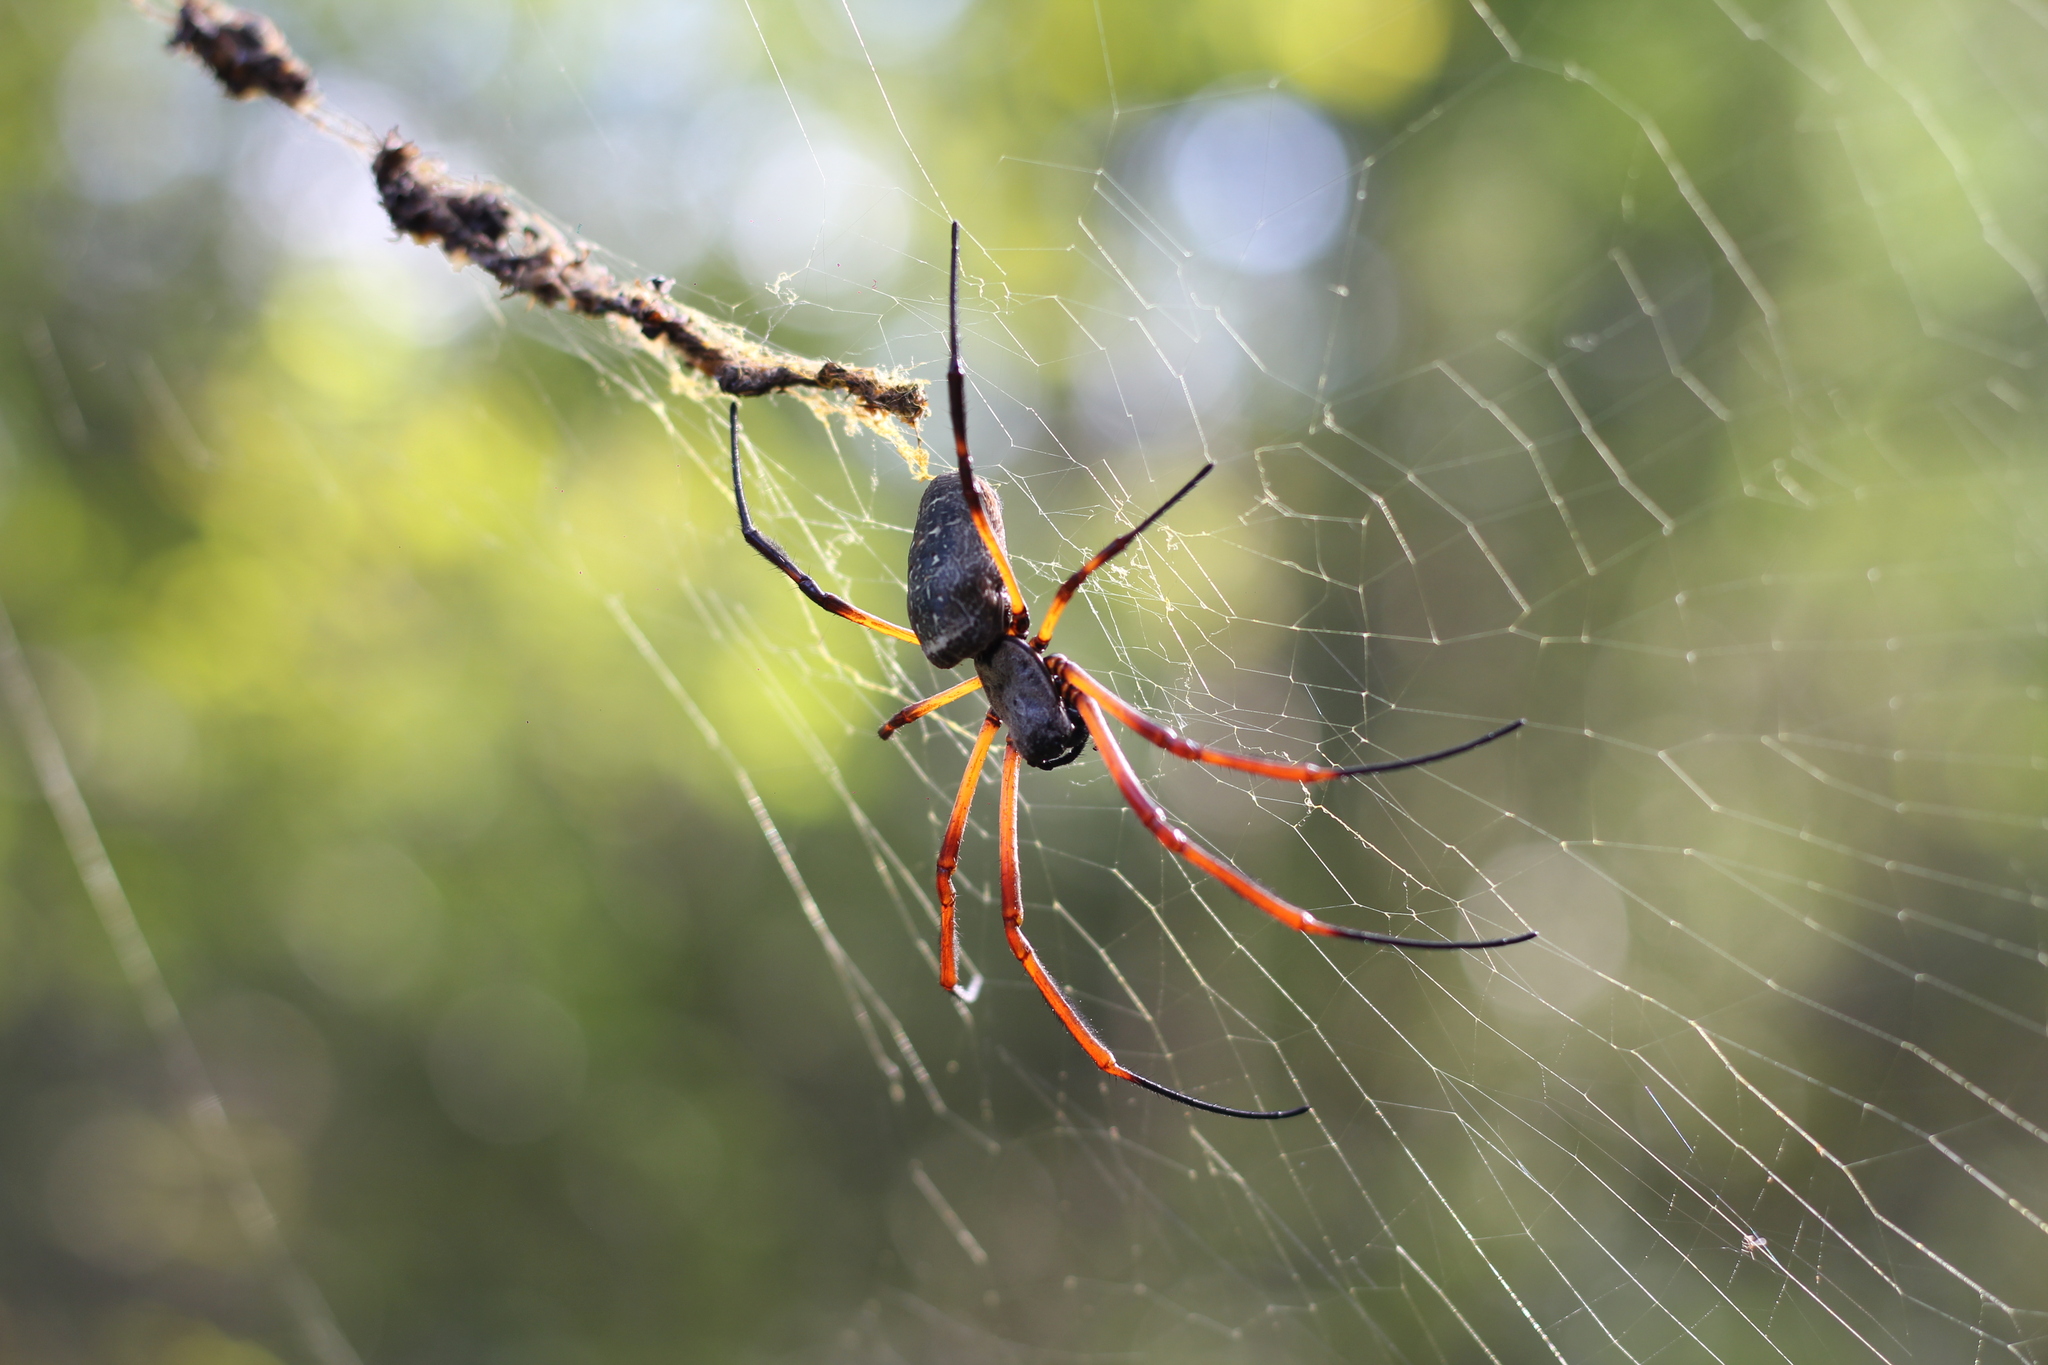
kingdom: Animalia
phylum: Arthropoda
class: Arachnida
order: Araneae
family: Araneidae
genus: Trichonephila
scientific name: Trichonephila sexpunctata
